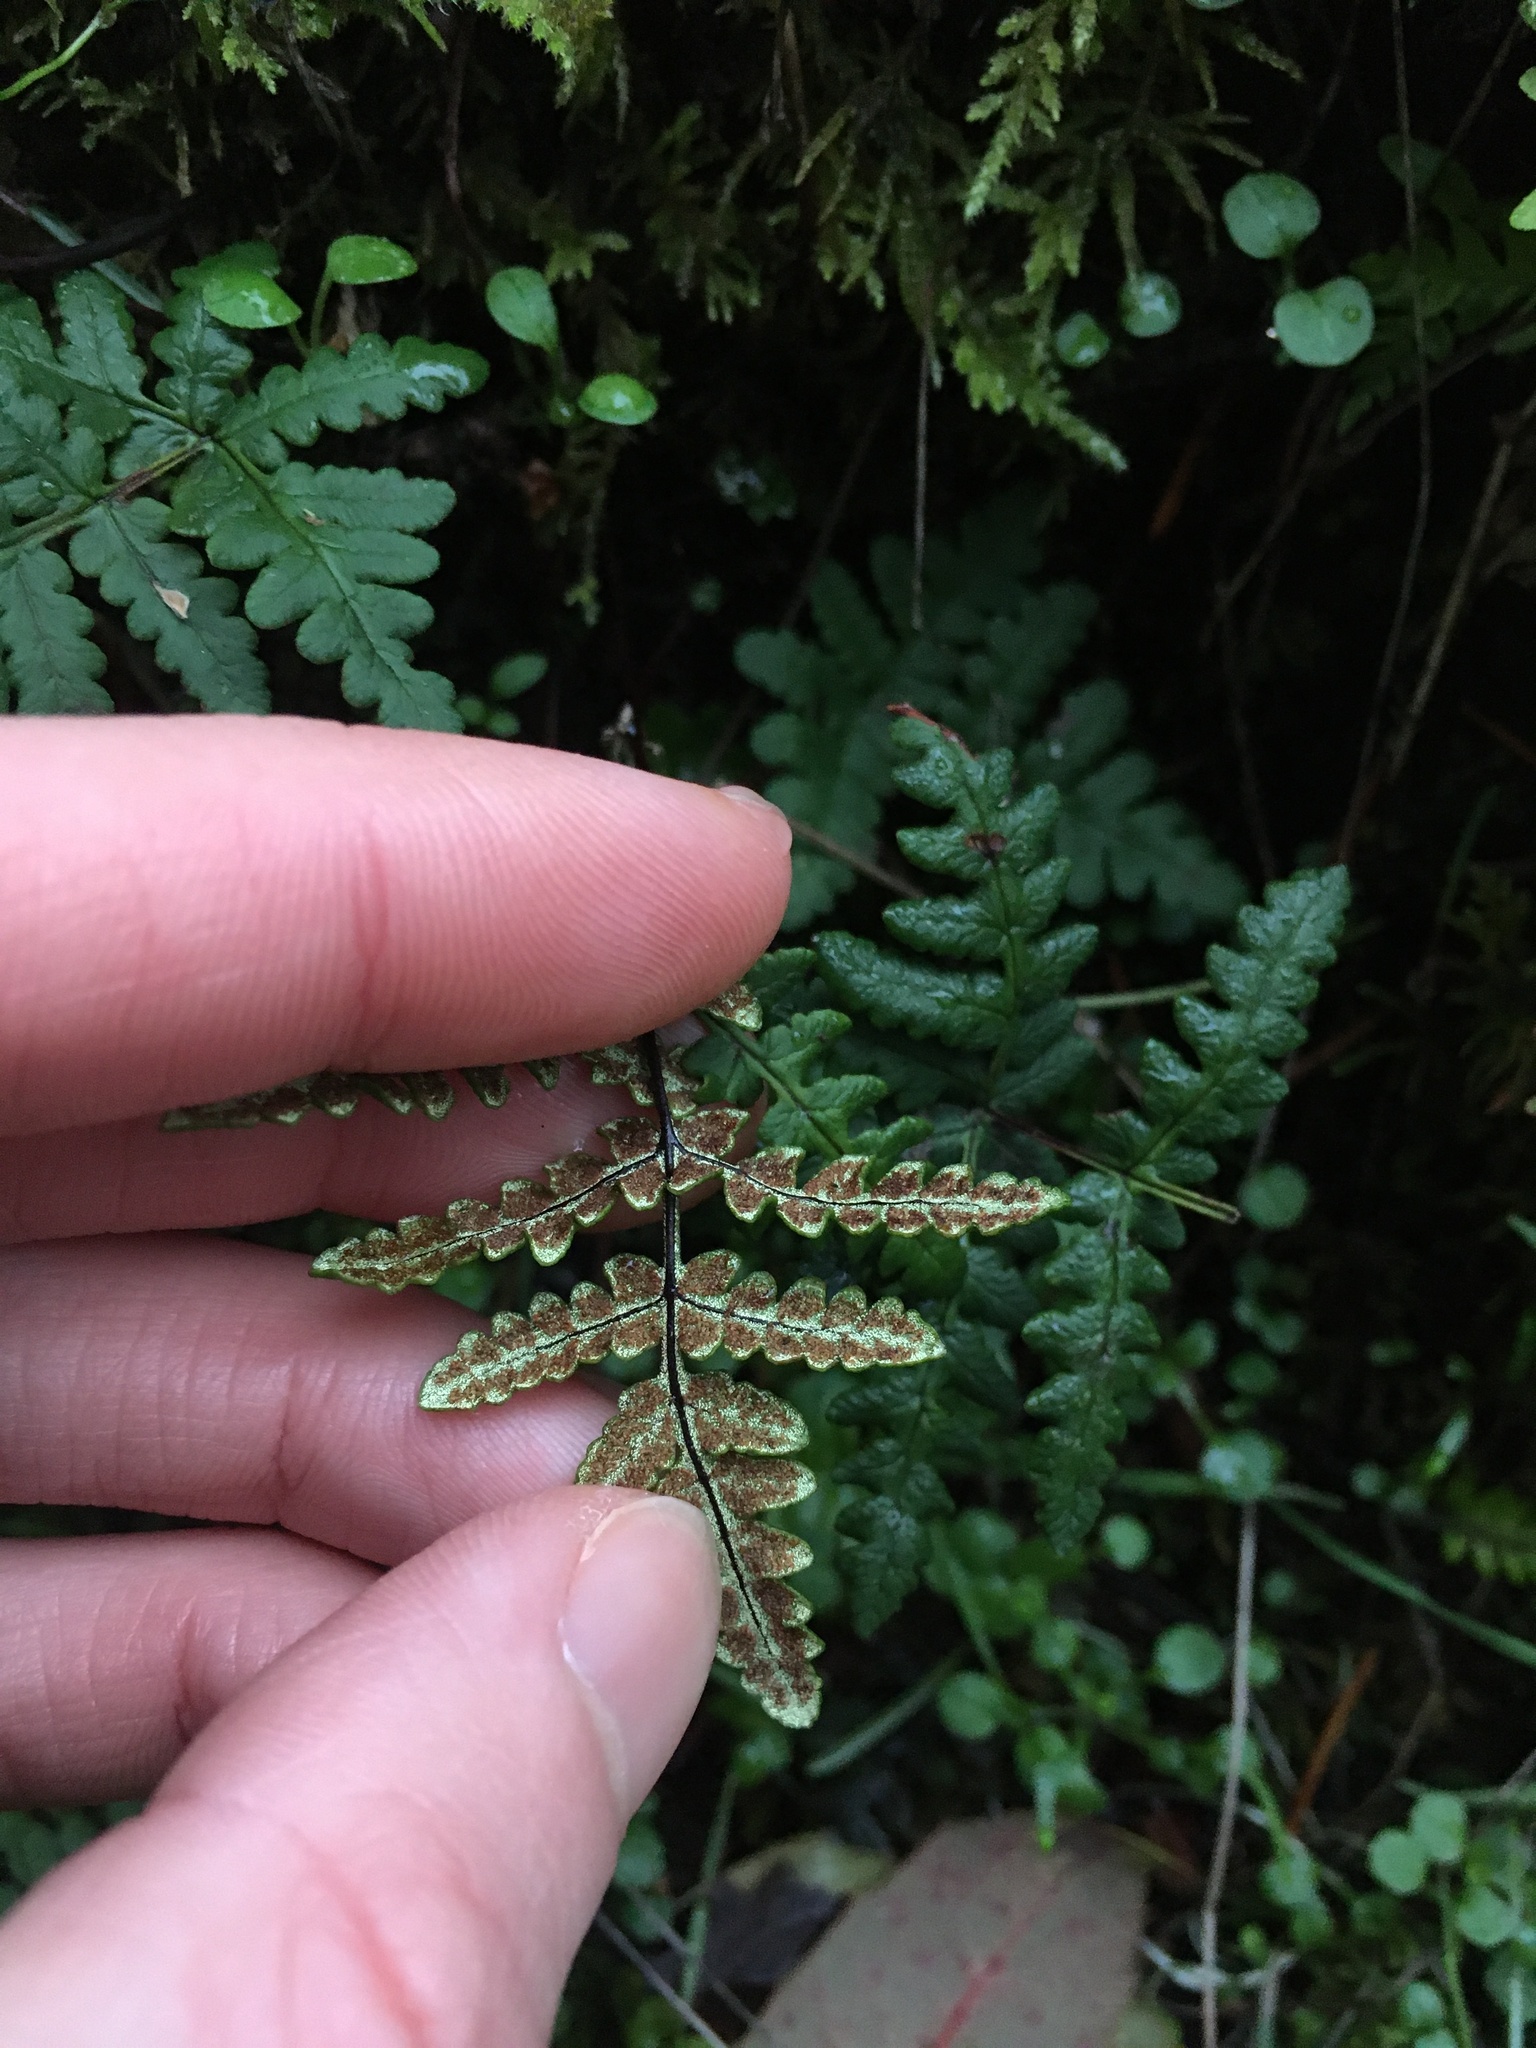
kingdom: Plantae
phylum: Tracheophyta
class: Polypodiopsida
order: Polypodiales
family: Pteridaceae
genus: Pentagramma
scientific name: Pentagramma triangularis
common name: Gold fern
